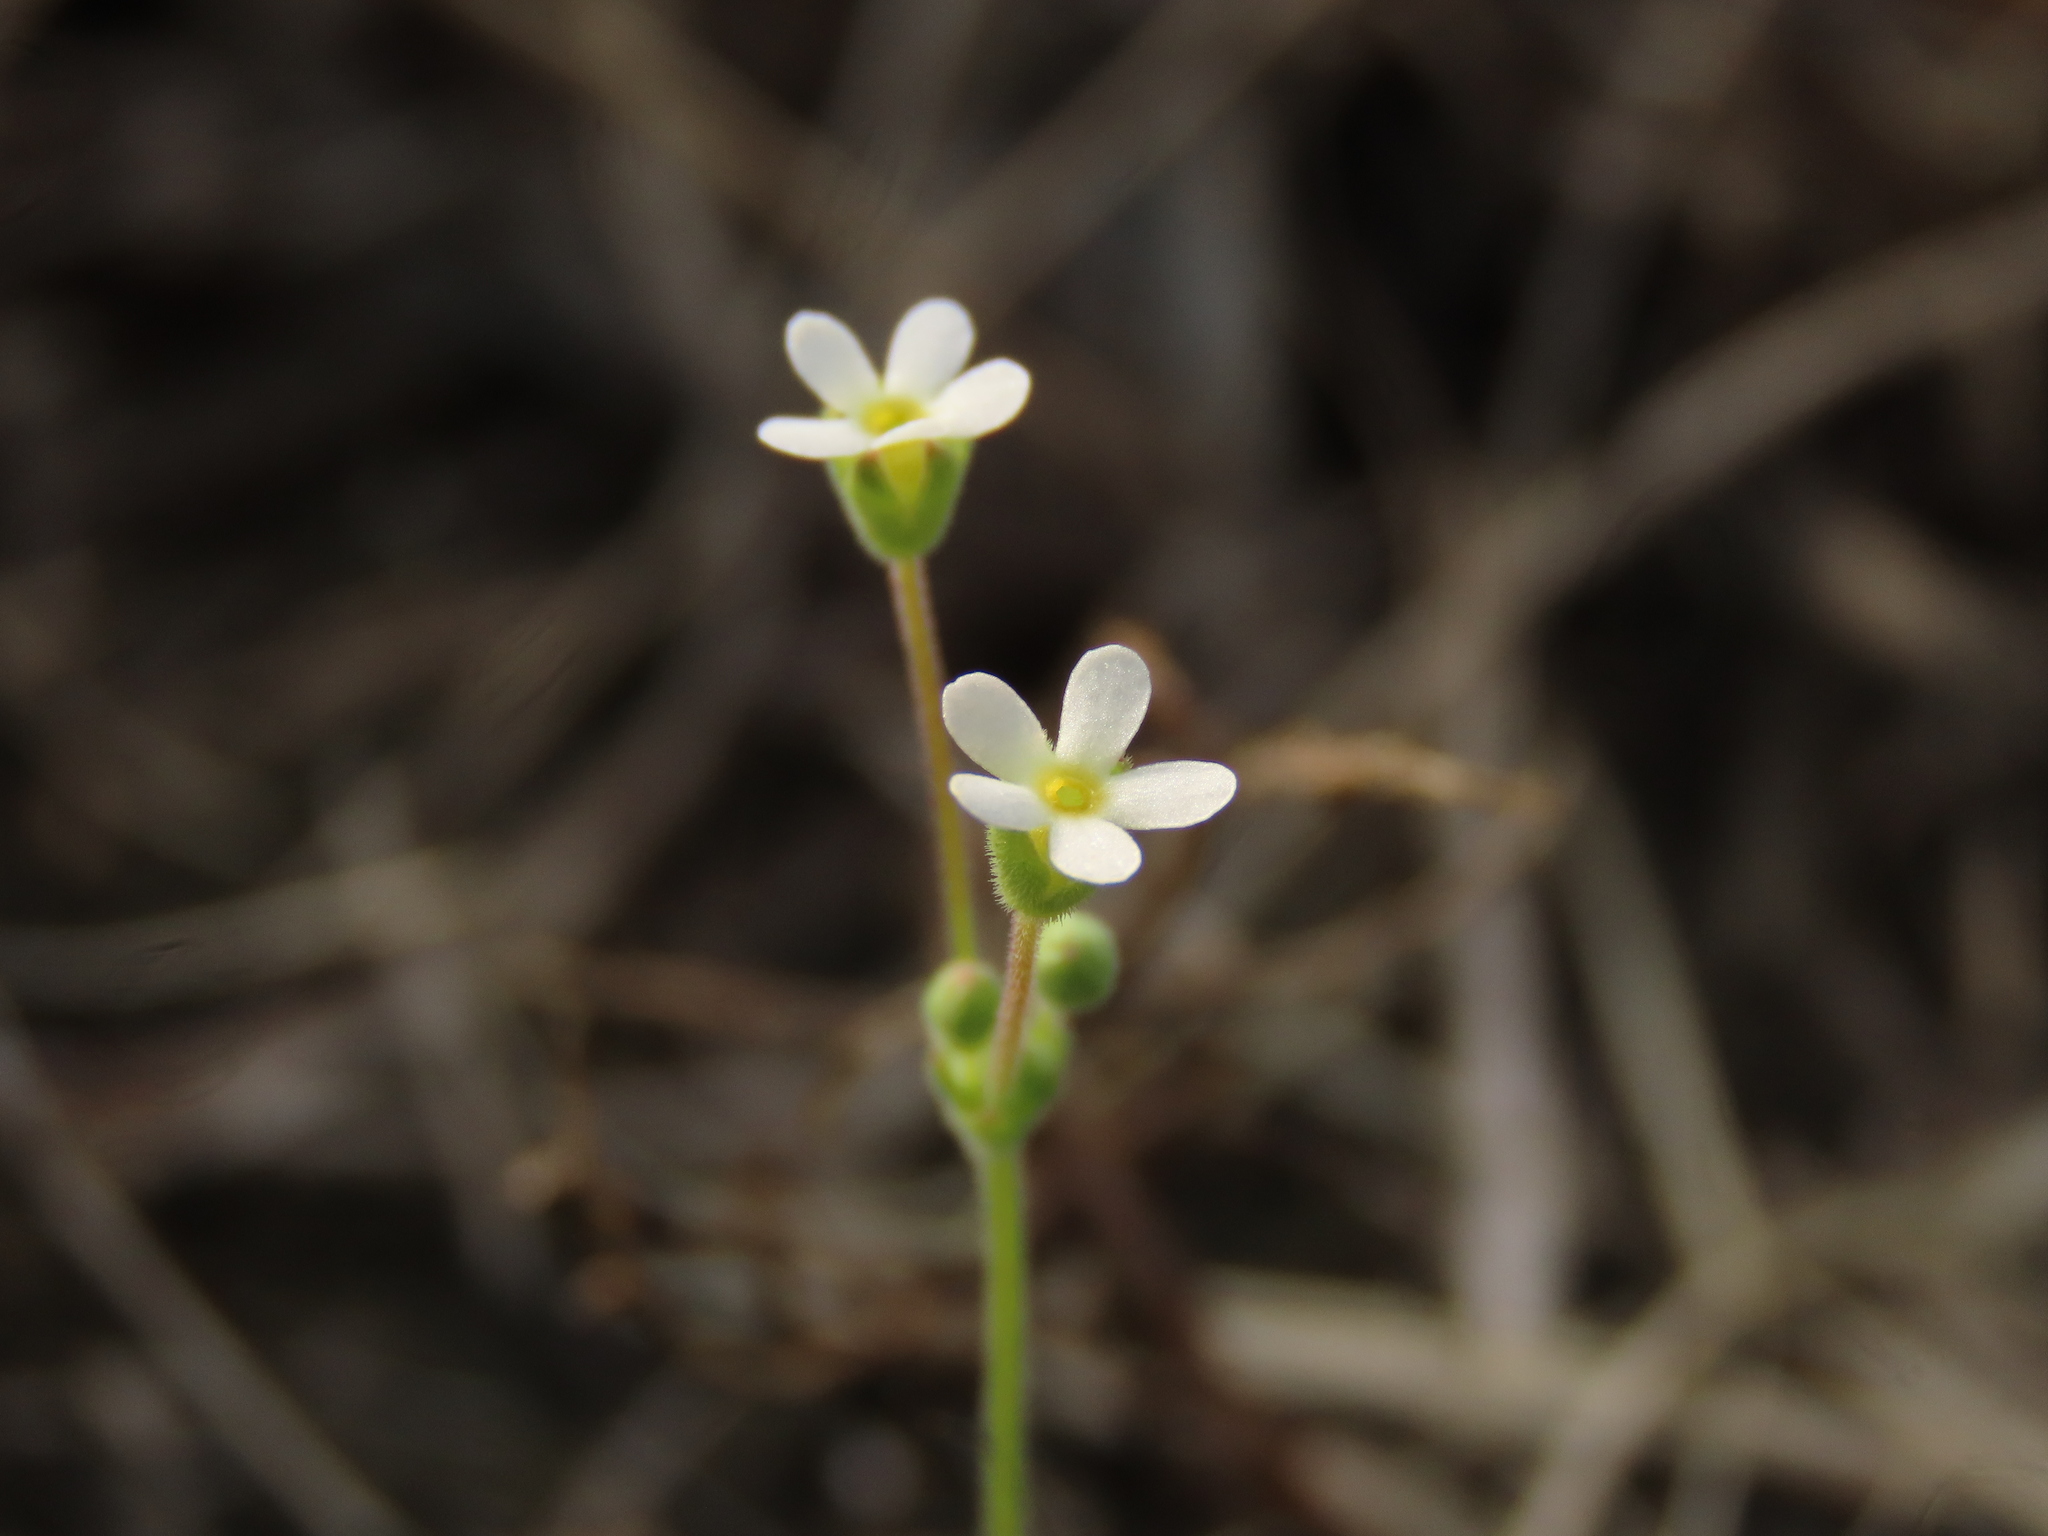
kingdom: Plantae
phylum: Tracheophyta
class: Magnoliopsida
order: Ericales
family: Primulaceae
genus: Androsace
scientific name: Androsace umbellata
